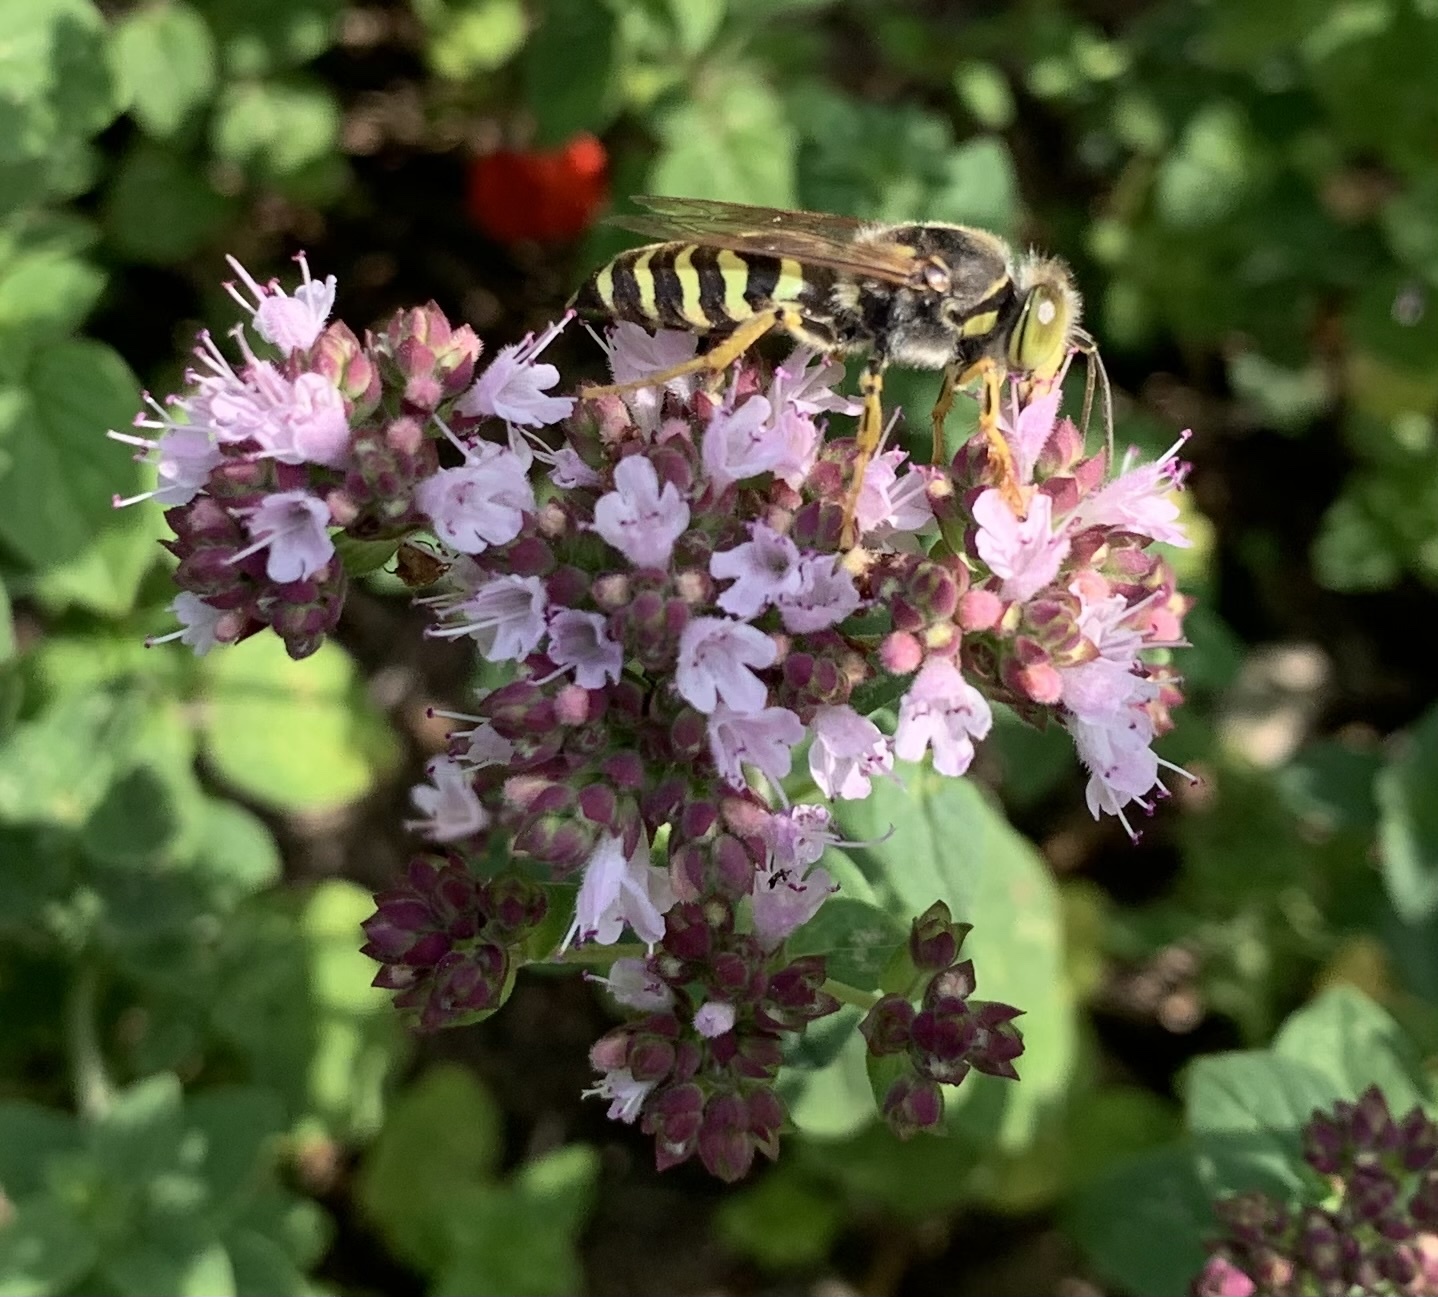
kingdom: Animalia
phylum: Arthropoda
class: Insecta
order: Hymenoptera
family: Crabronidae
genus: Bembix
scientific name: Bembix rostrata
